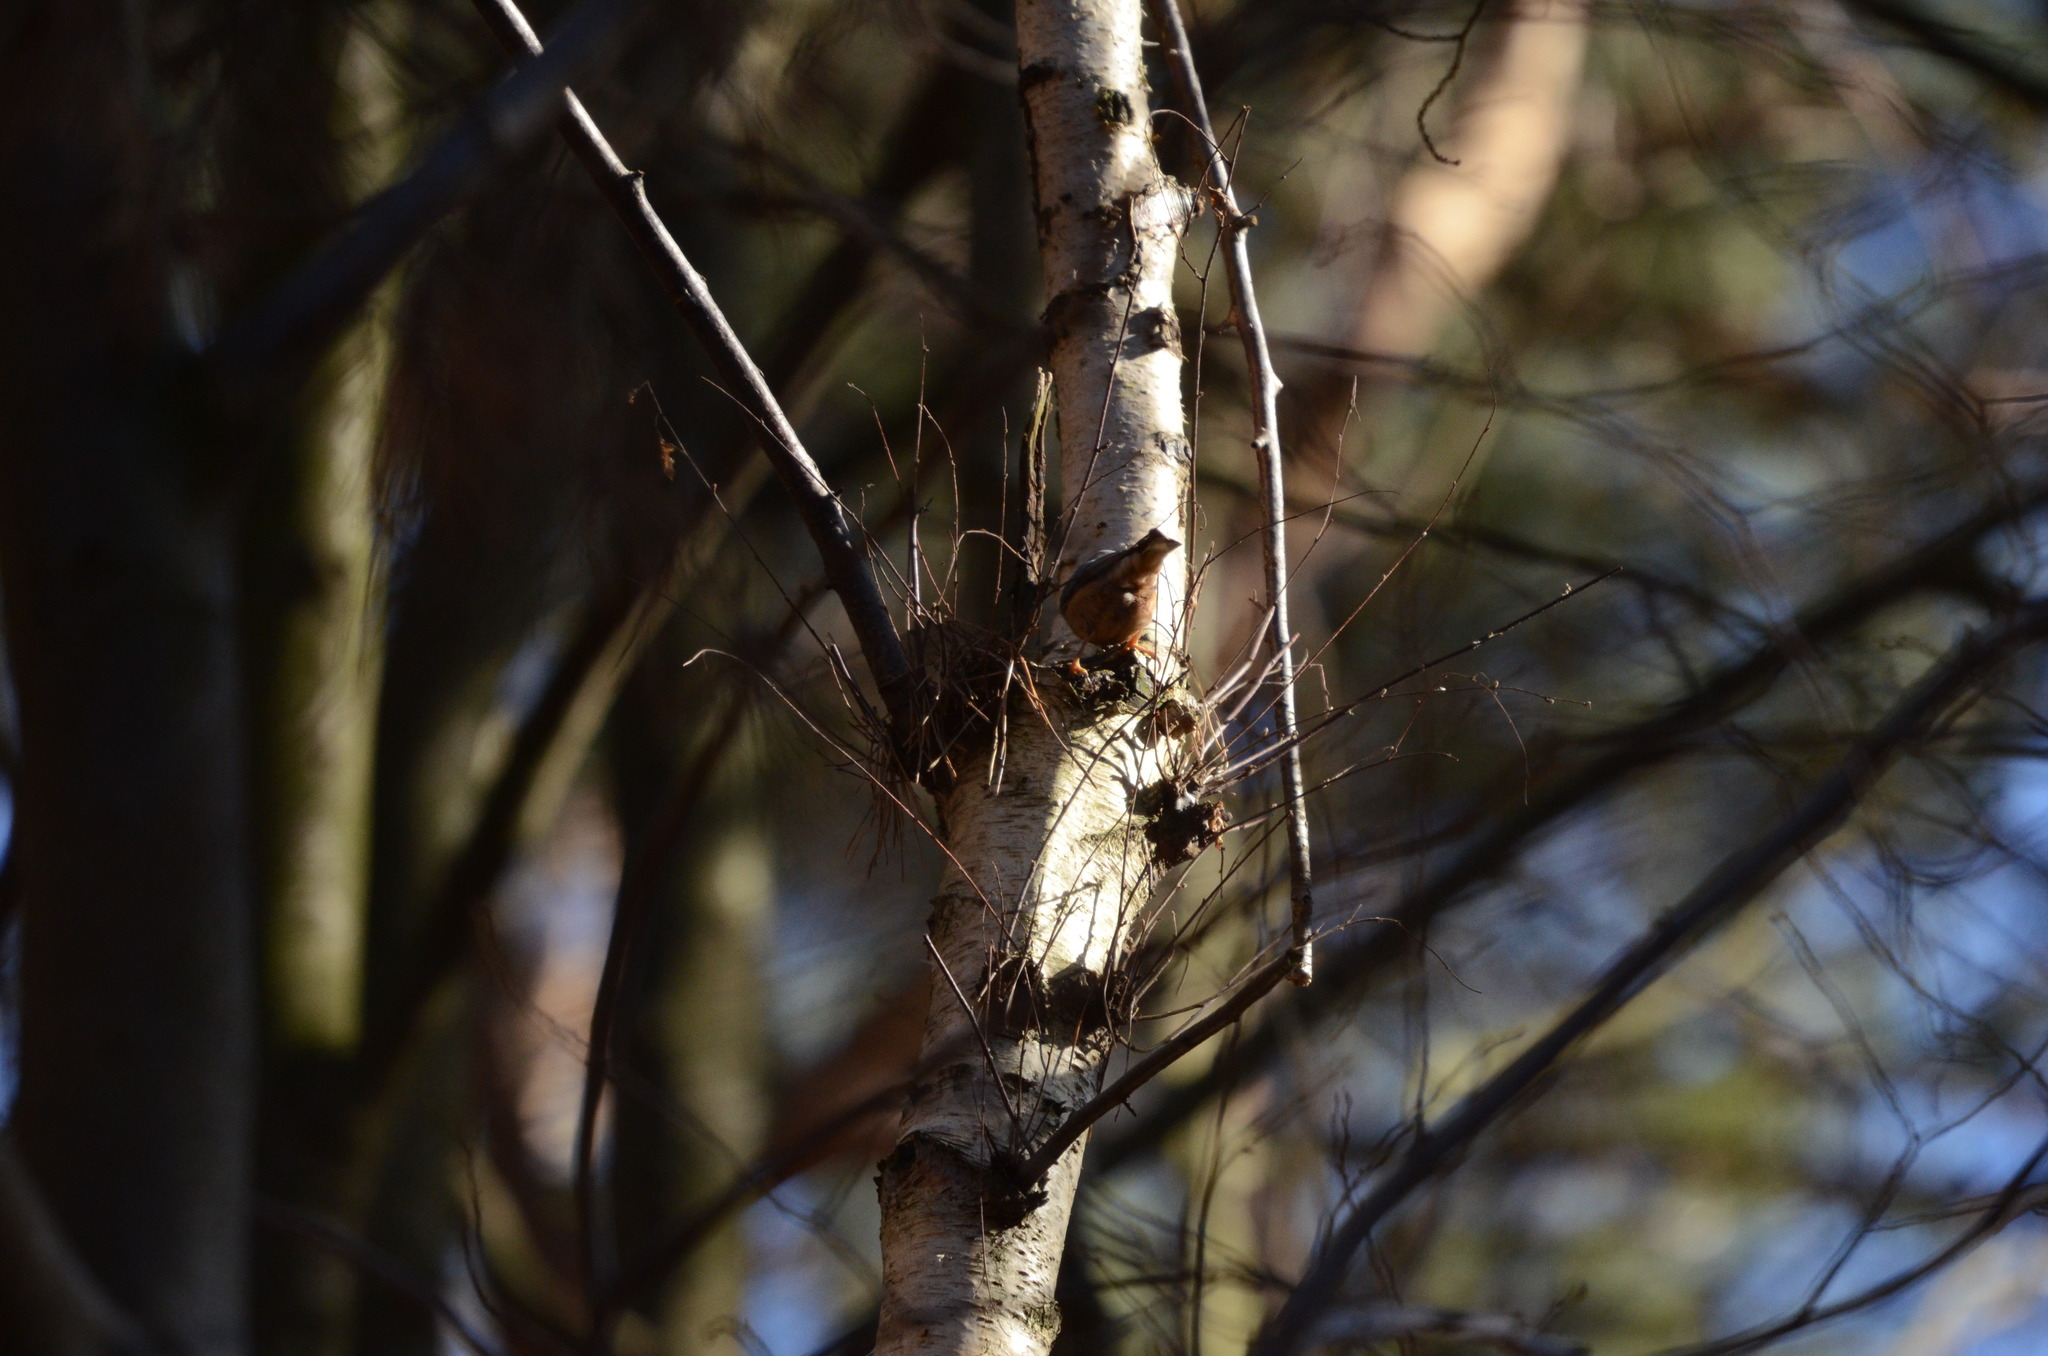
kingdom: Animalia
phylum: Chordata
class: Aves
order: Passeriformes
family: Sittidae
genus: Sitta
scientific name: Sitta europaea
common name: Eurasian nuthatch
